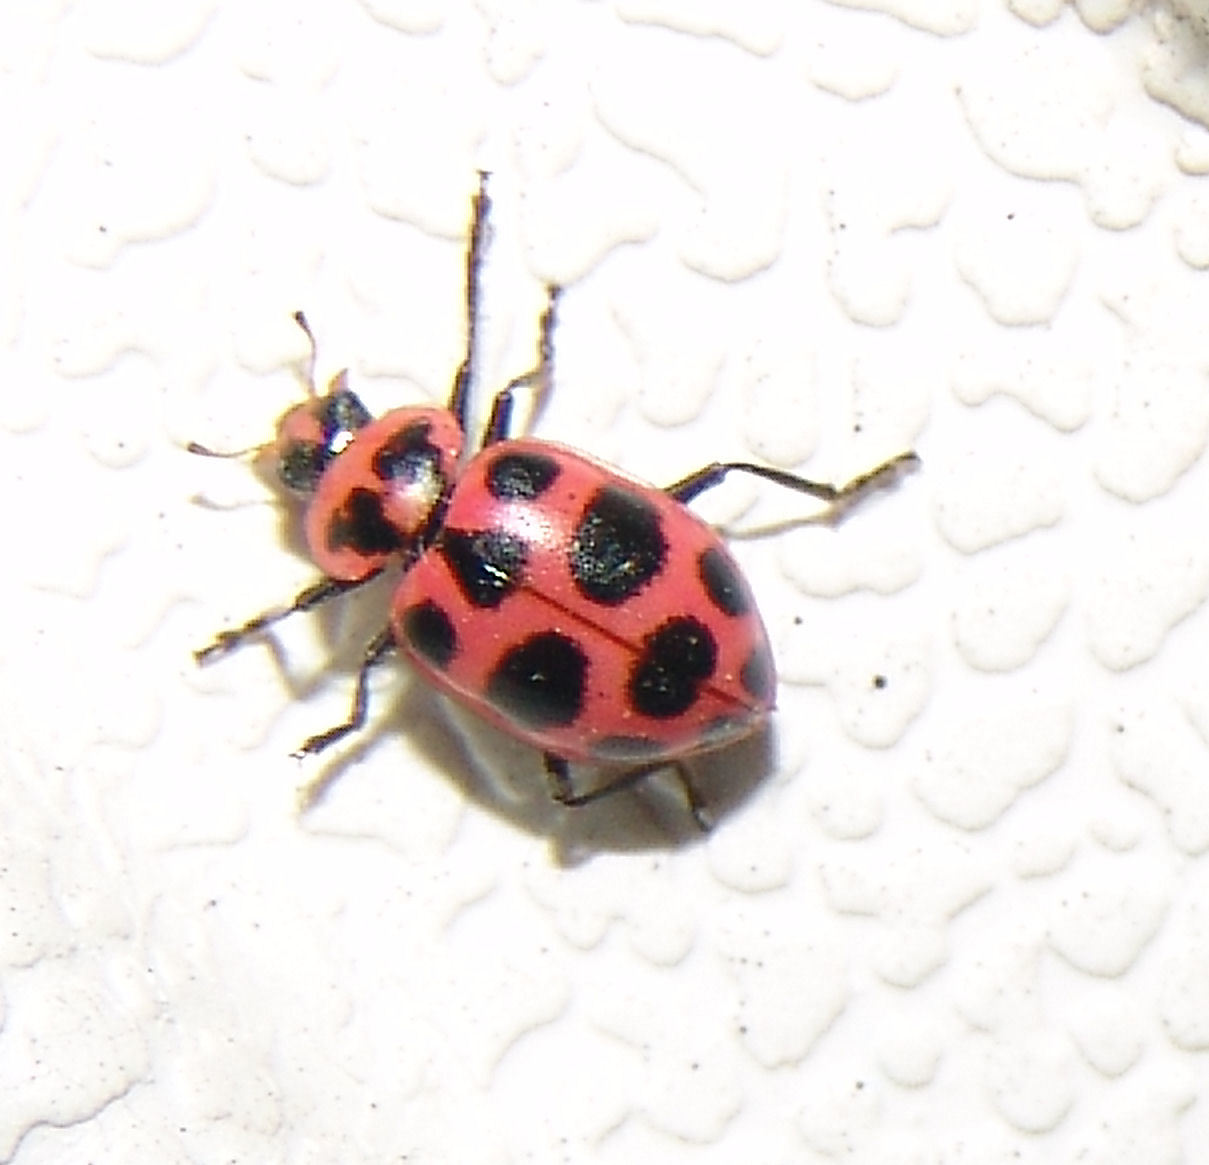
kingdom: Animalia
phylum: Arthropoda
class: Insecta
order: Coleoptera
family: Coccinellidae
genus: Coleomegilla
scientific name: Coleomegilla maculata
